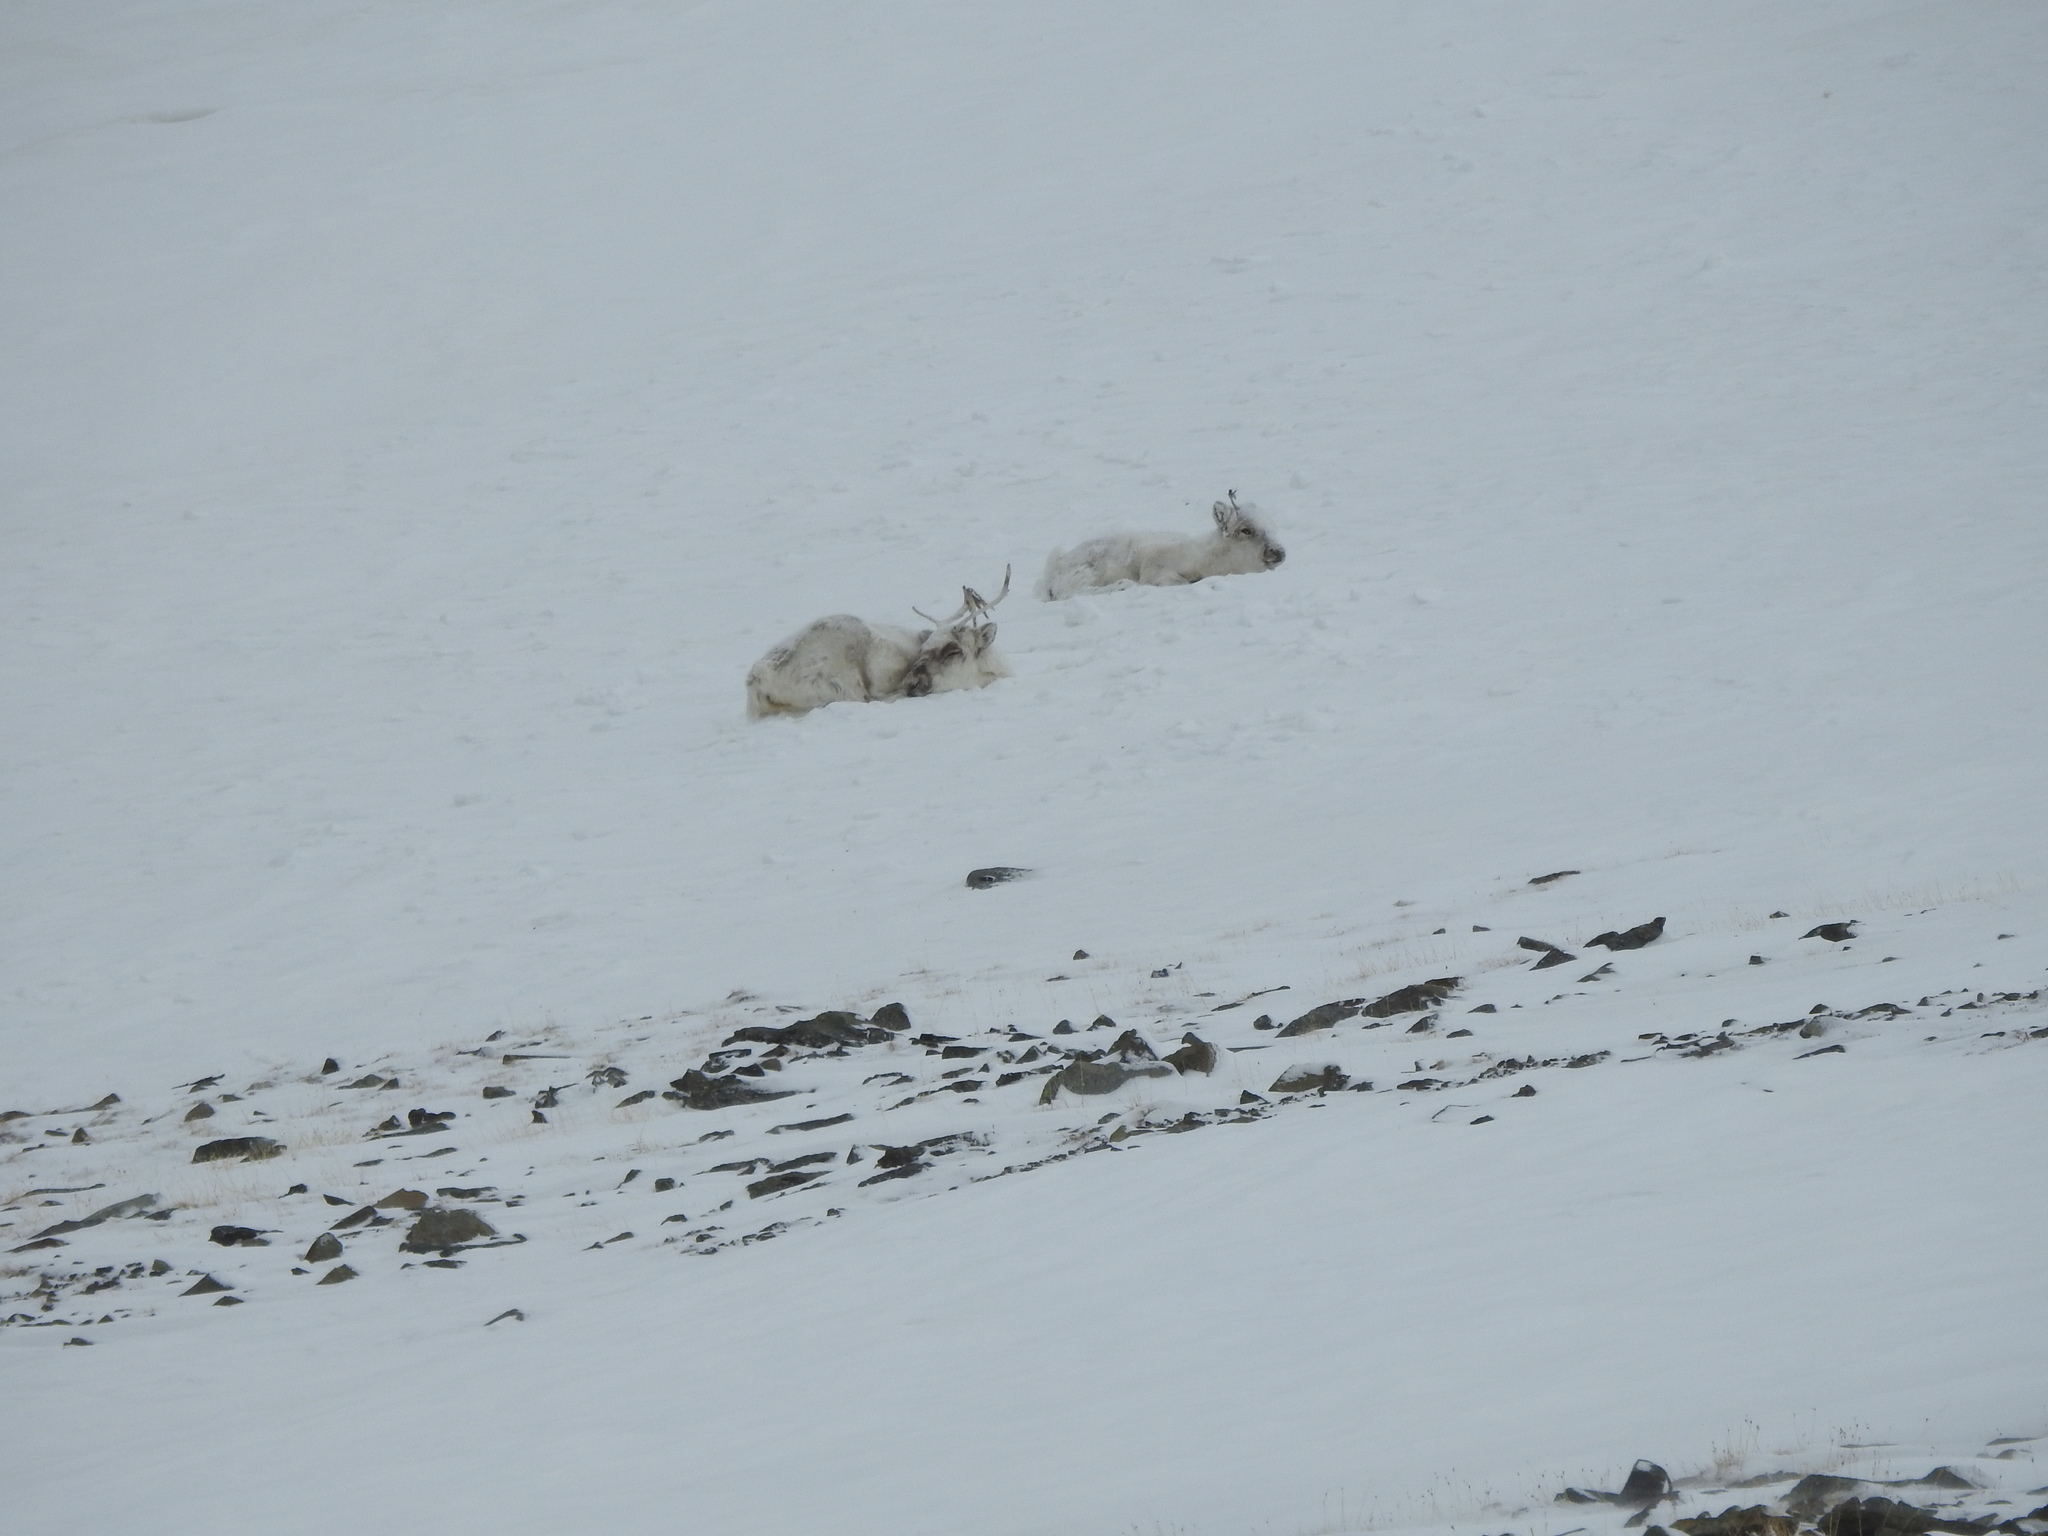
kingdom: Animalia
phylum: Chordata
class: Mammalia
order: Artiodactyla
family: Cervidae
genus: Rangifer
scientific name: Rangifer tarandus
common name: Reindeer
